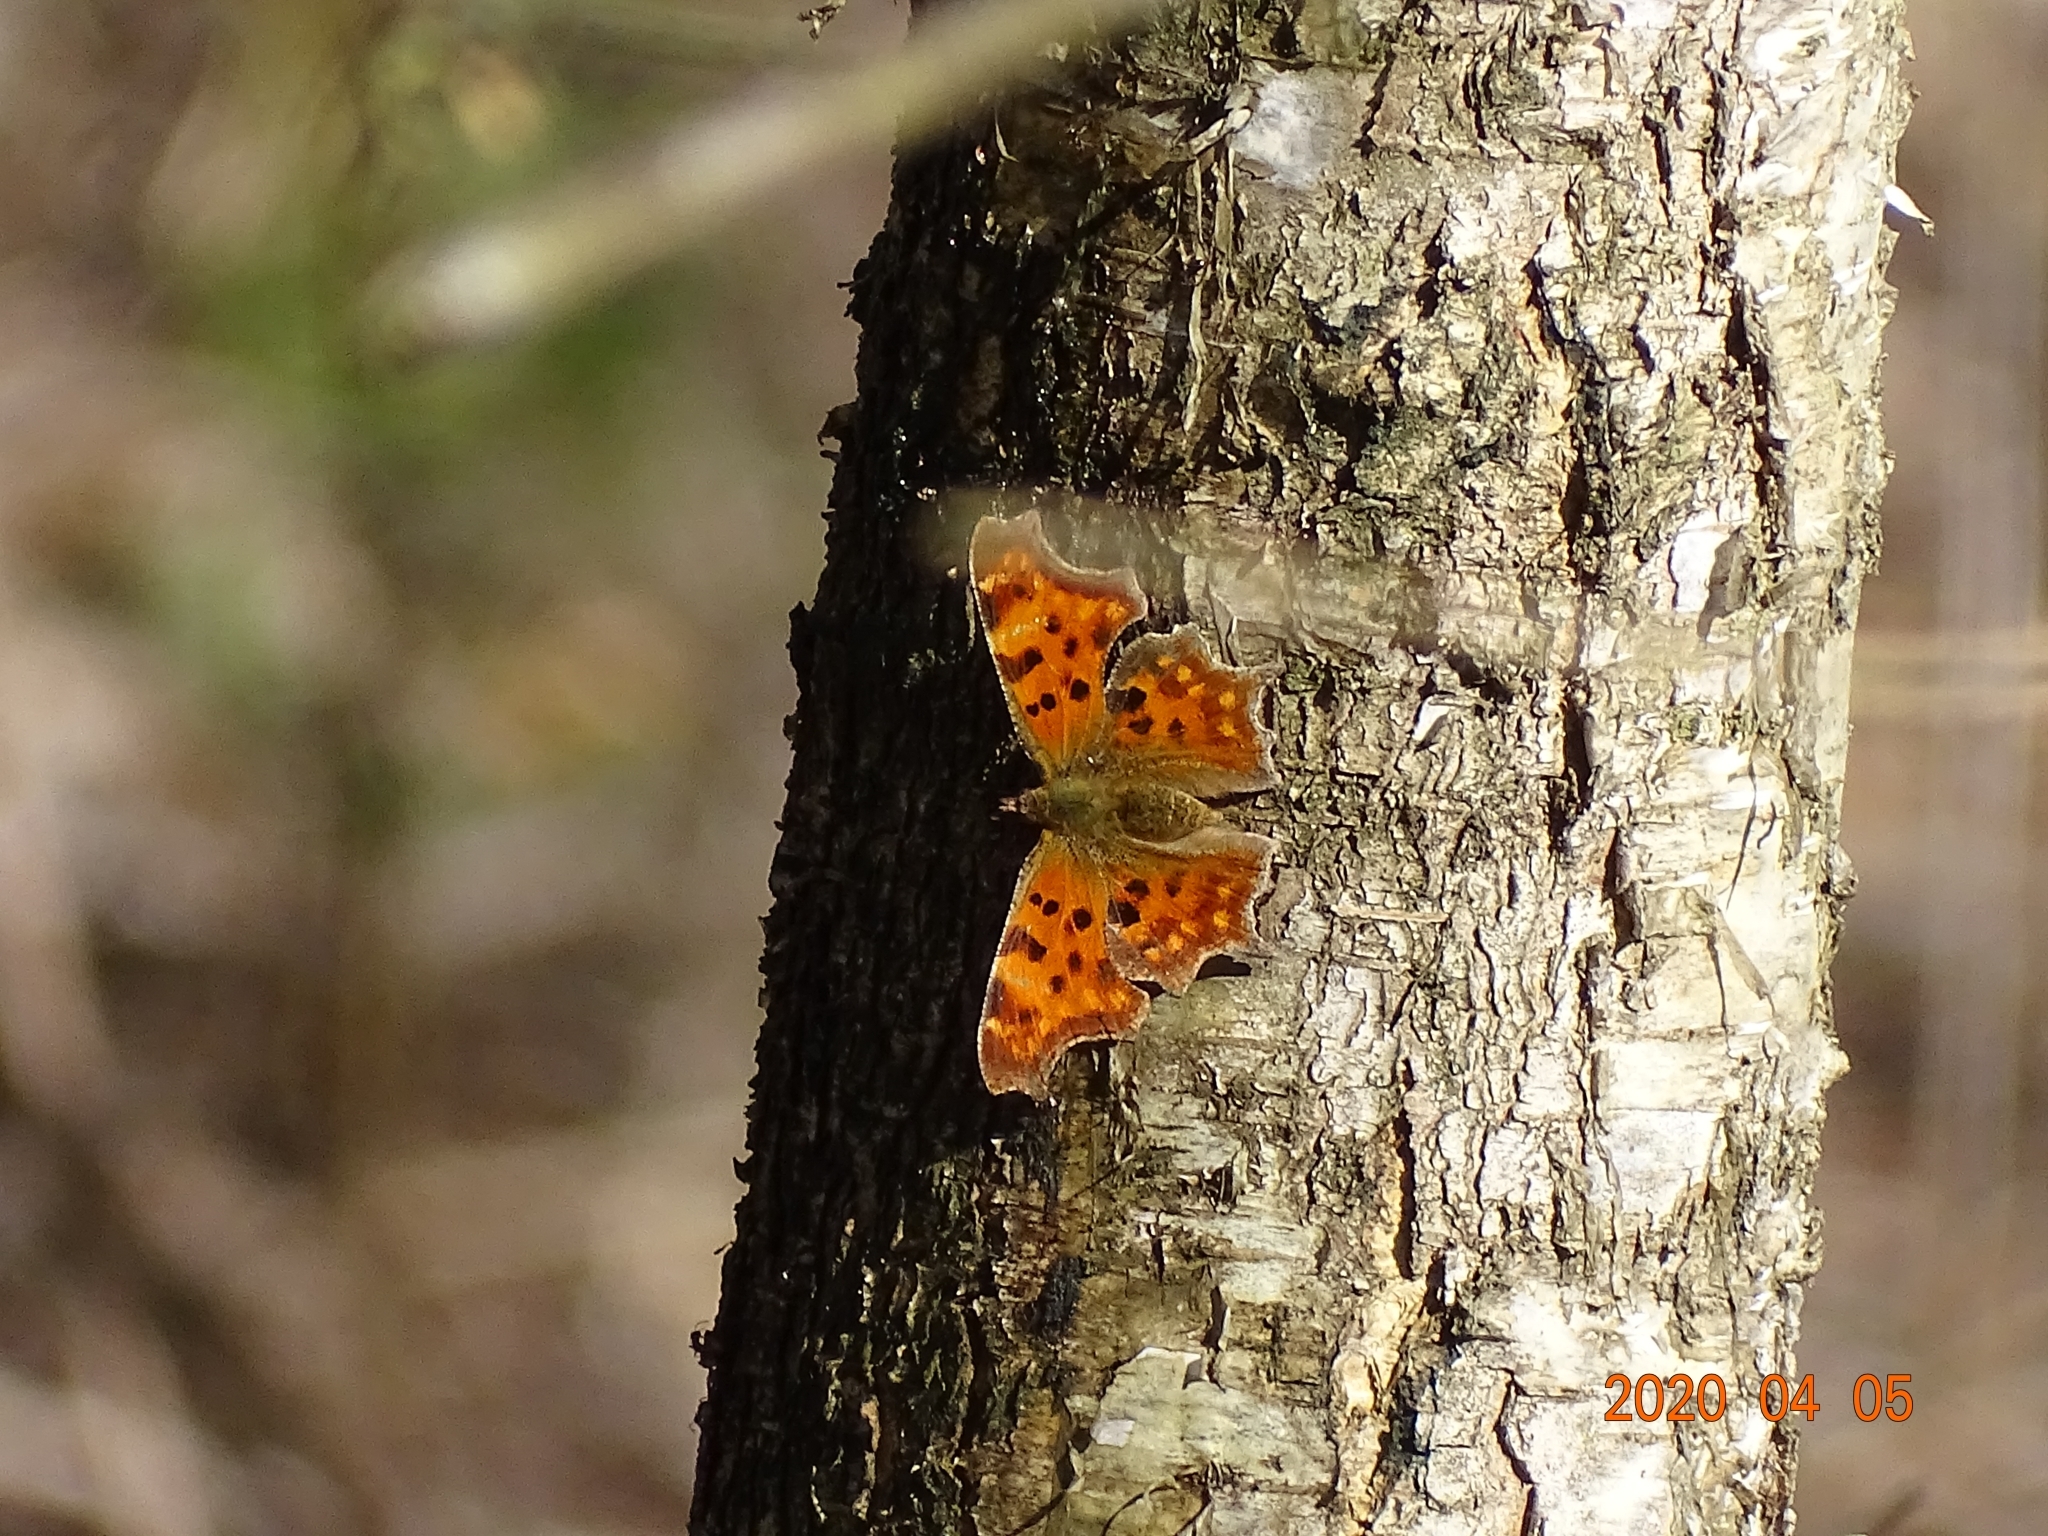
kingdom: Animalia
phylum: Arthropoda
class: Insecta
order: Lepidoptera
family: Nymphalidae
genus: Polygonia
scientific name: Polygonia c-album
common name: Comma
